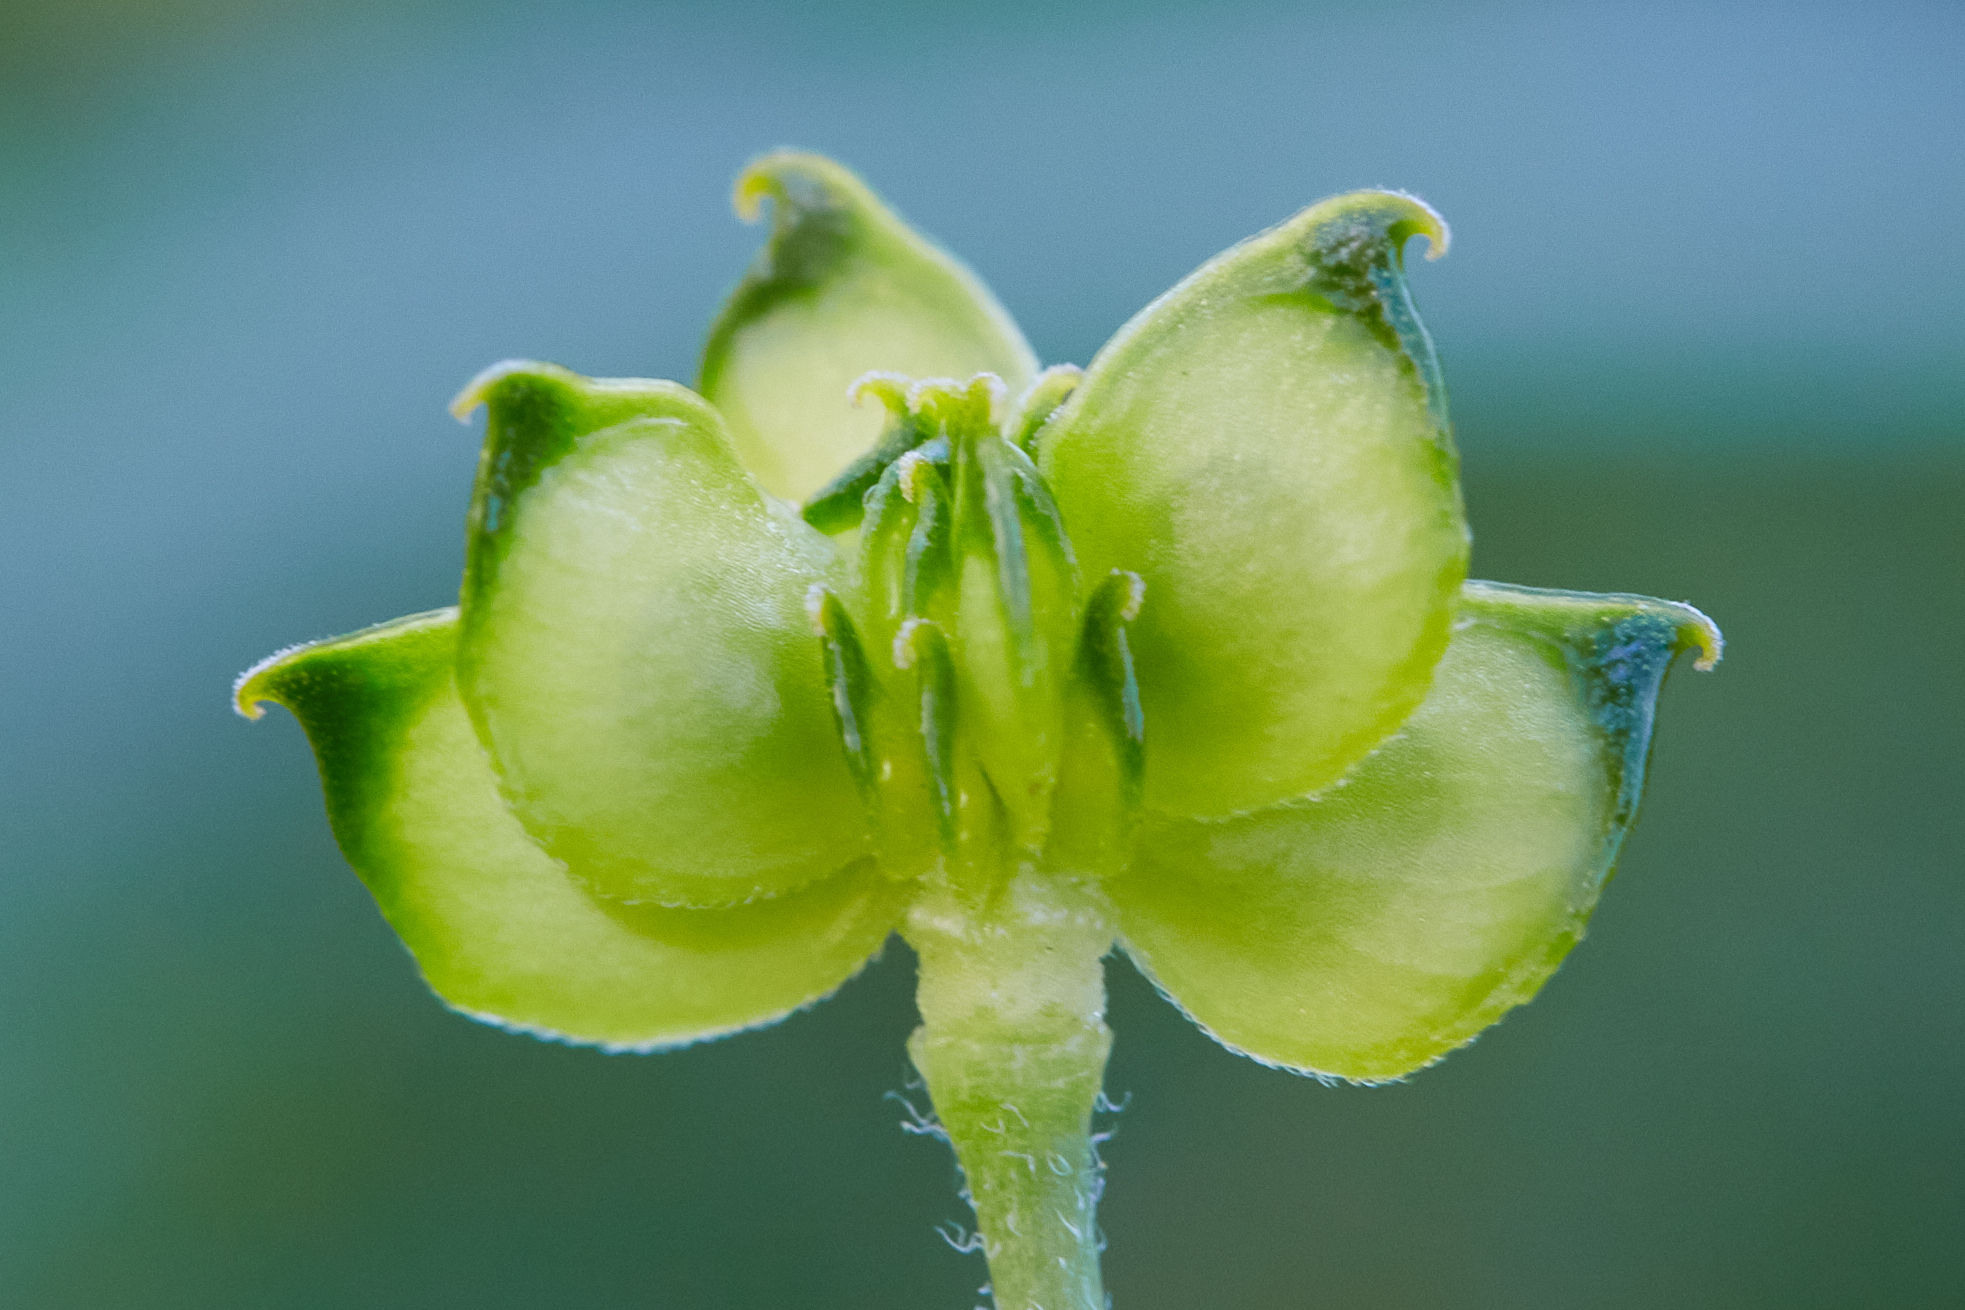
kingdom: Plantae
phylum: Tracheophyta
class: Magnoliopsida
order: Ranunculales
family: Ranunculaceae
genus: Ranunculus
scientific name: Ranunculus canus
